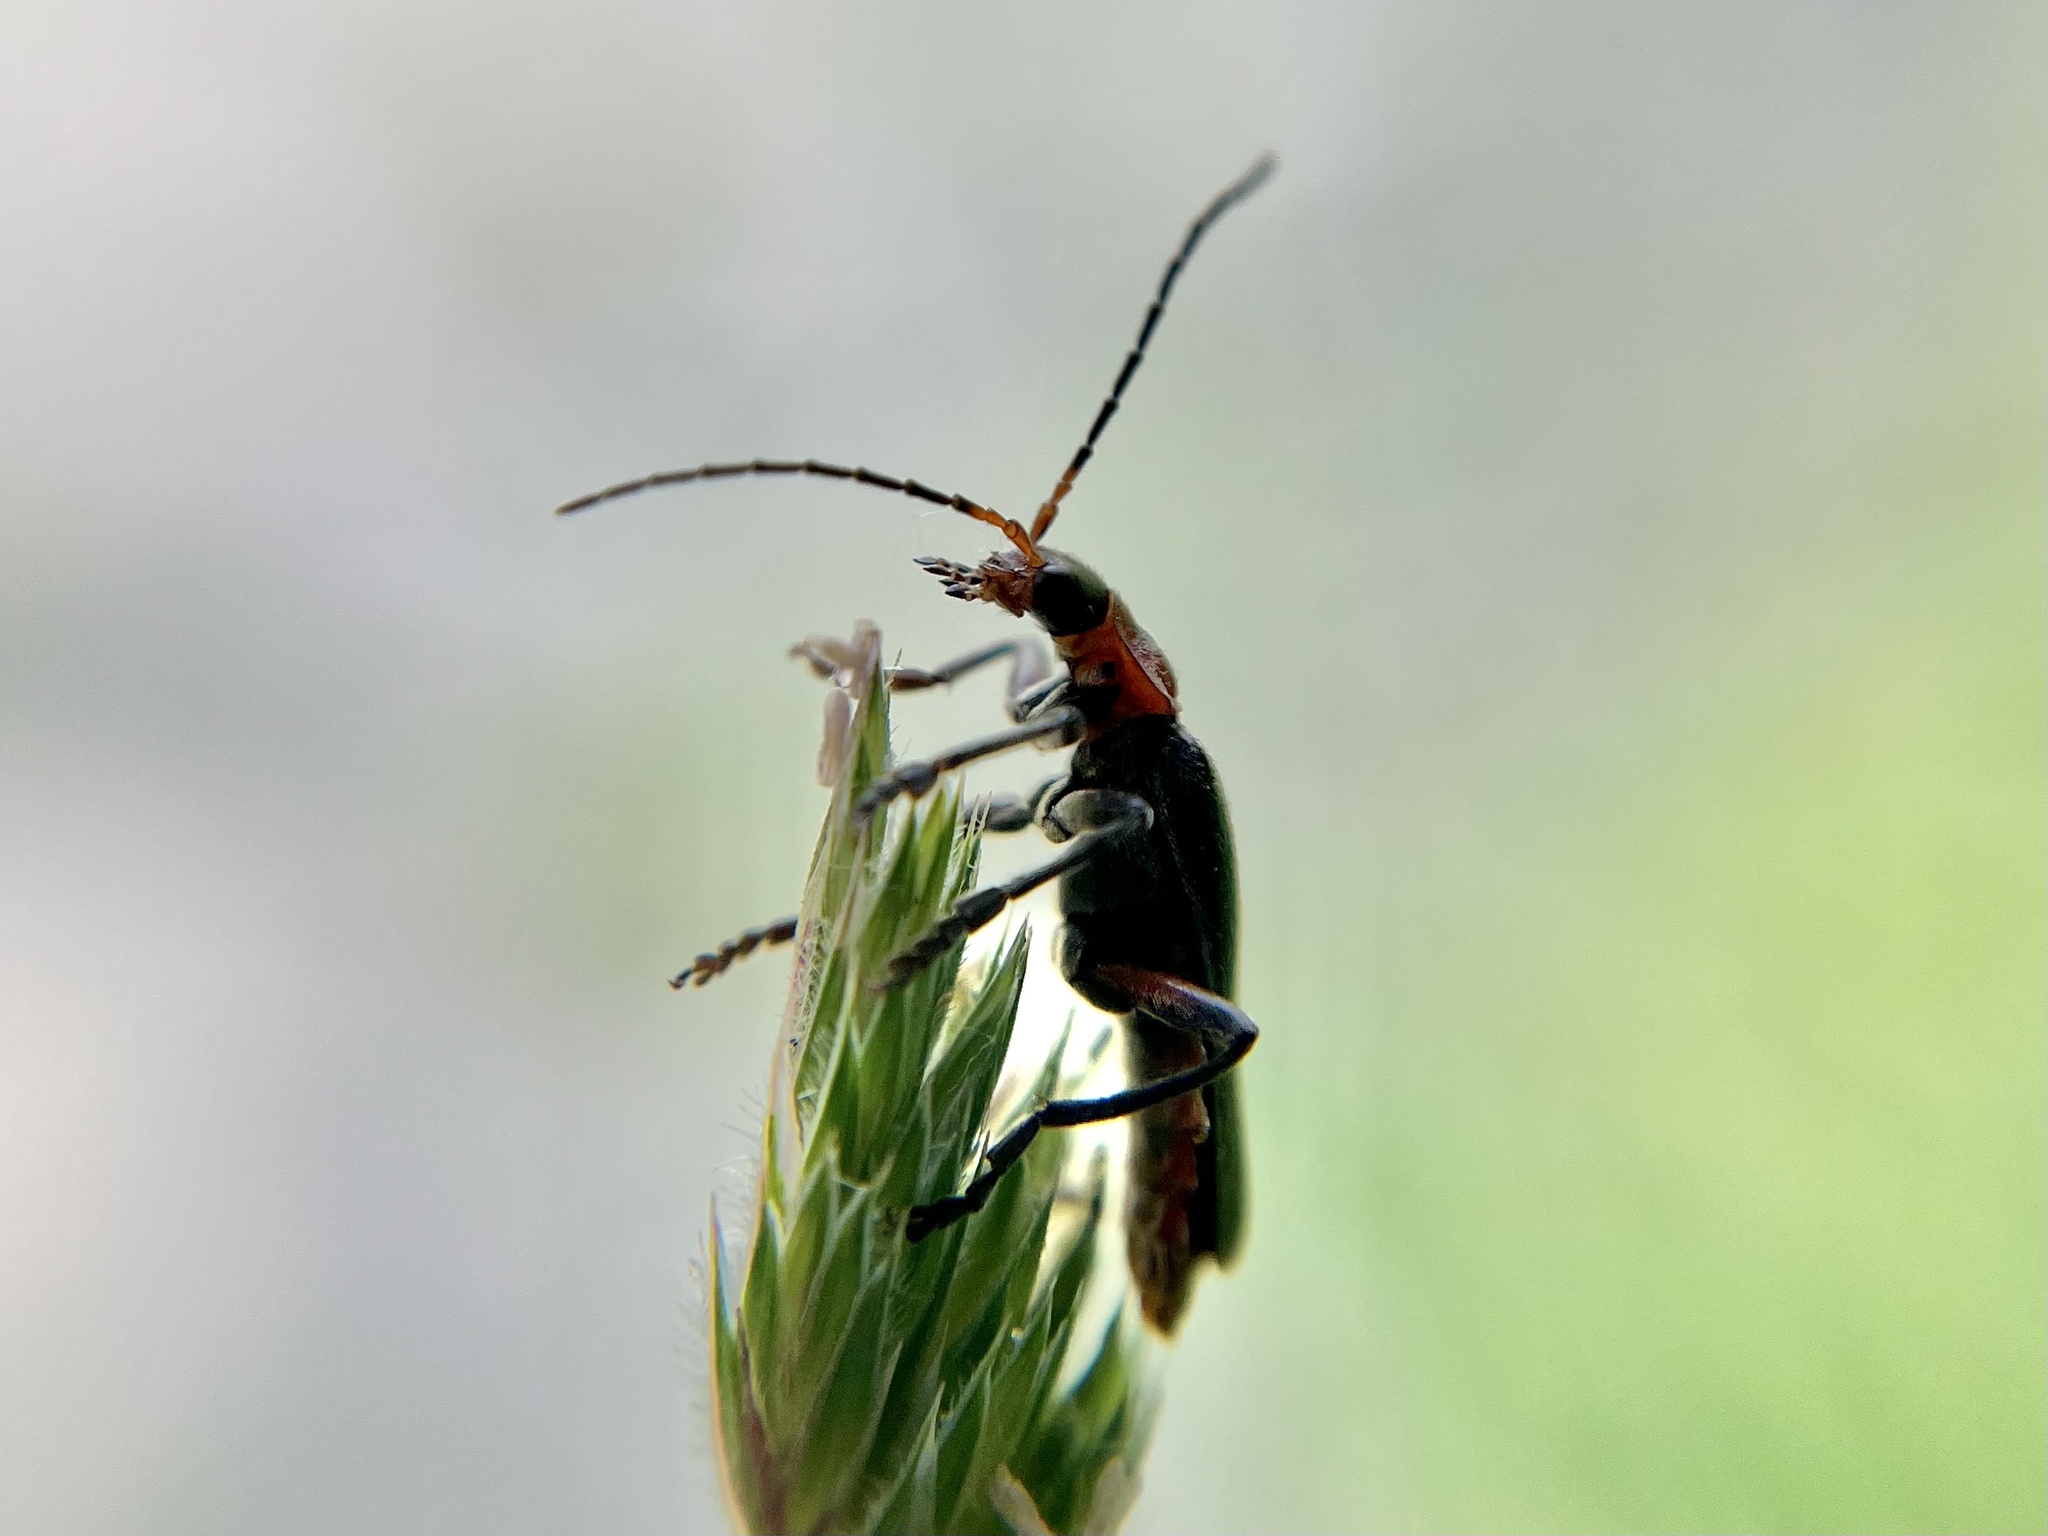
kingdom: Animalia
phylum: Arthropoda
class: Insecta
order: Coleoptera
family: Cantharidae
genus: Cantharis
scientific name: Cantharis rustica
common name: Soldier beetle
